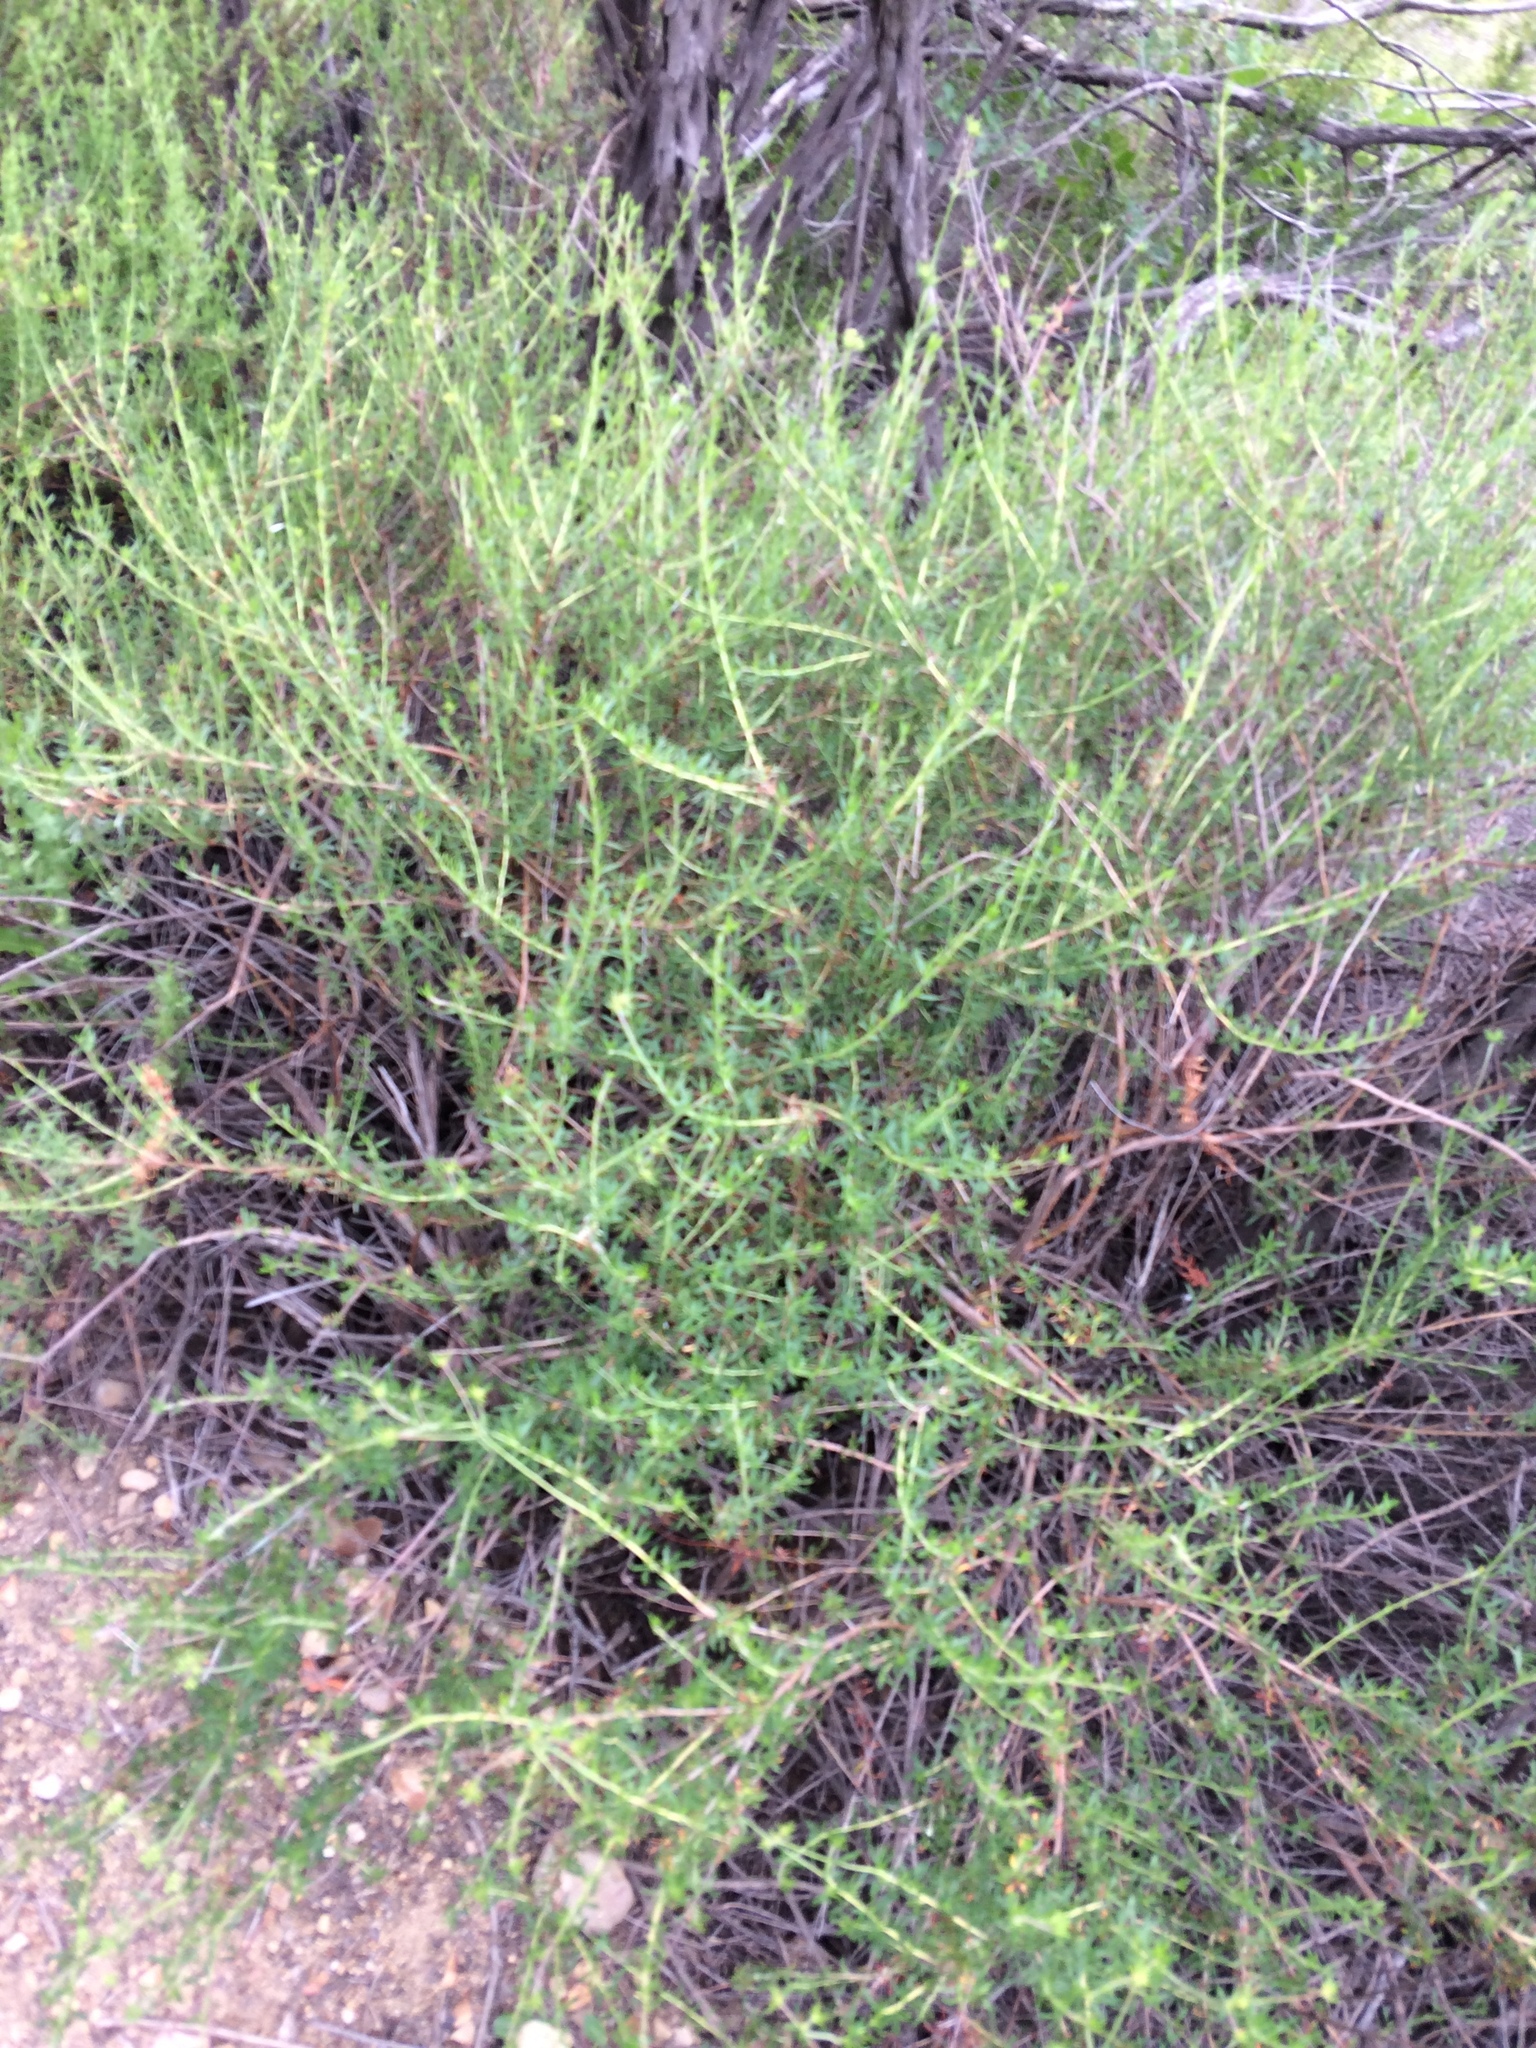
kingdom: Plantae
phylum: Tracheophyta
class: Magnoliopsida
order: Caryophyllales
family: Polygonaceae
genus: Eriogonum
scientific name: Eriogonum fasciculatum
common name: California wild buckwheat
